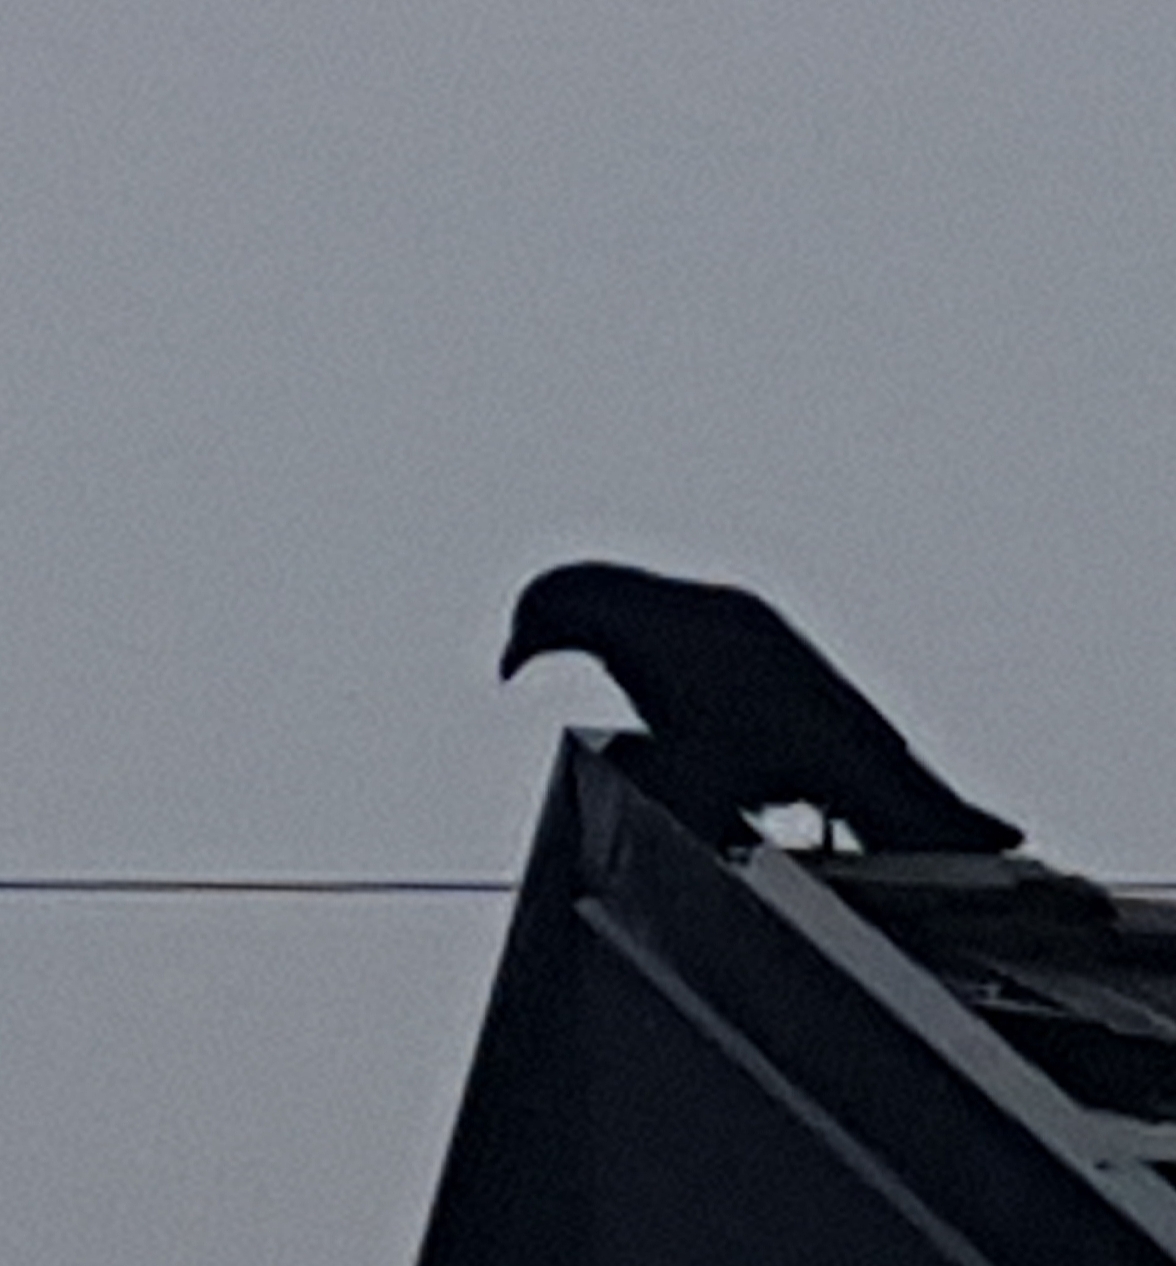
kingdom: Animalia
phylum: Chordata
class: Aves
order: Passeriformes
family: Corvidae
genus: Corvus
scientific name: Corvus brachyrhynchos
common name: American crow
